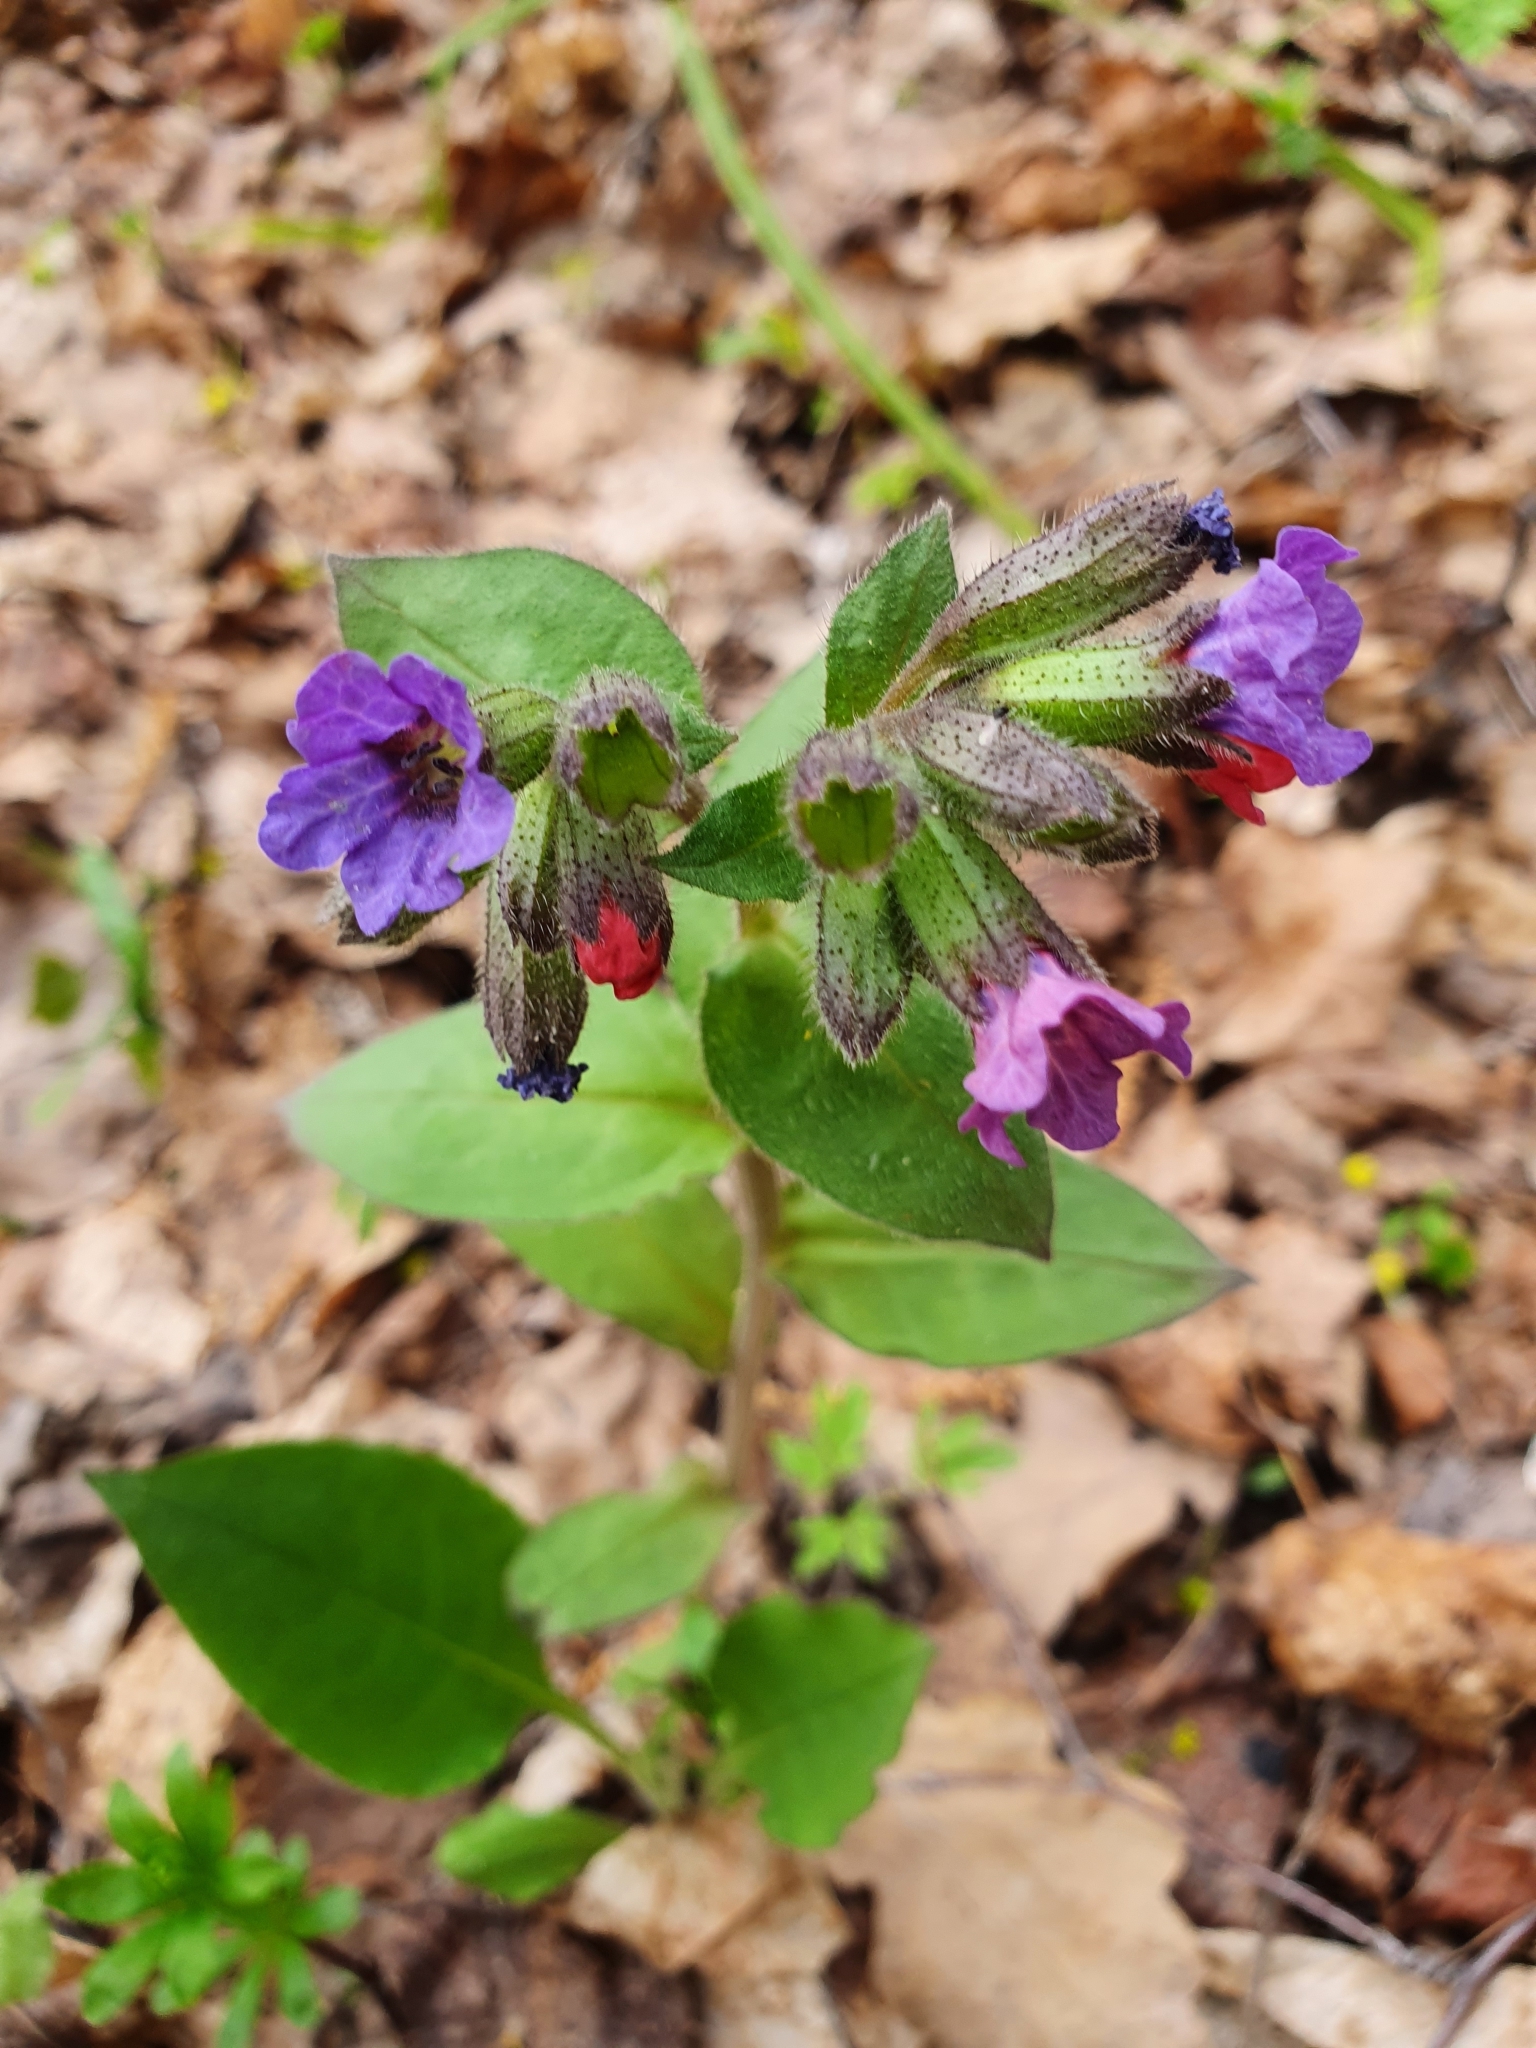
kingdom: Plantae
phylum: Tracheophyta
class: Magnoliopsida
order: Boraginales
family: Boraginaceae
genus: Pulmonaria
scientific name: Pulmonaria obscura
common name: Suffolk lungwort
